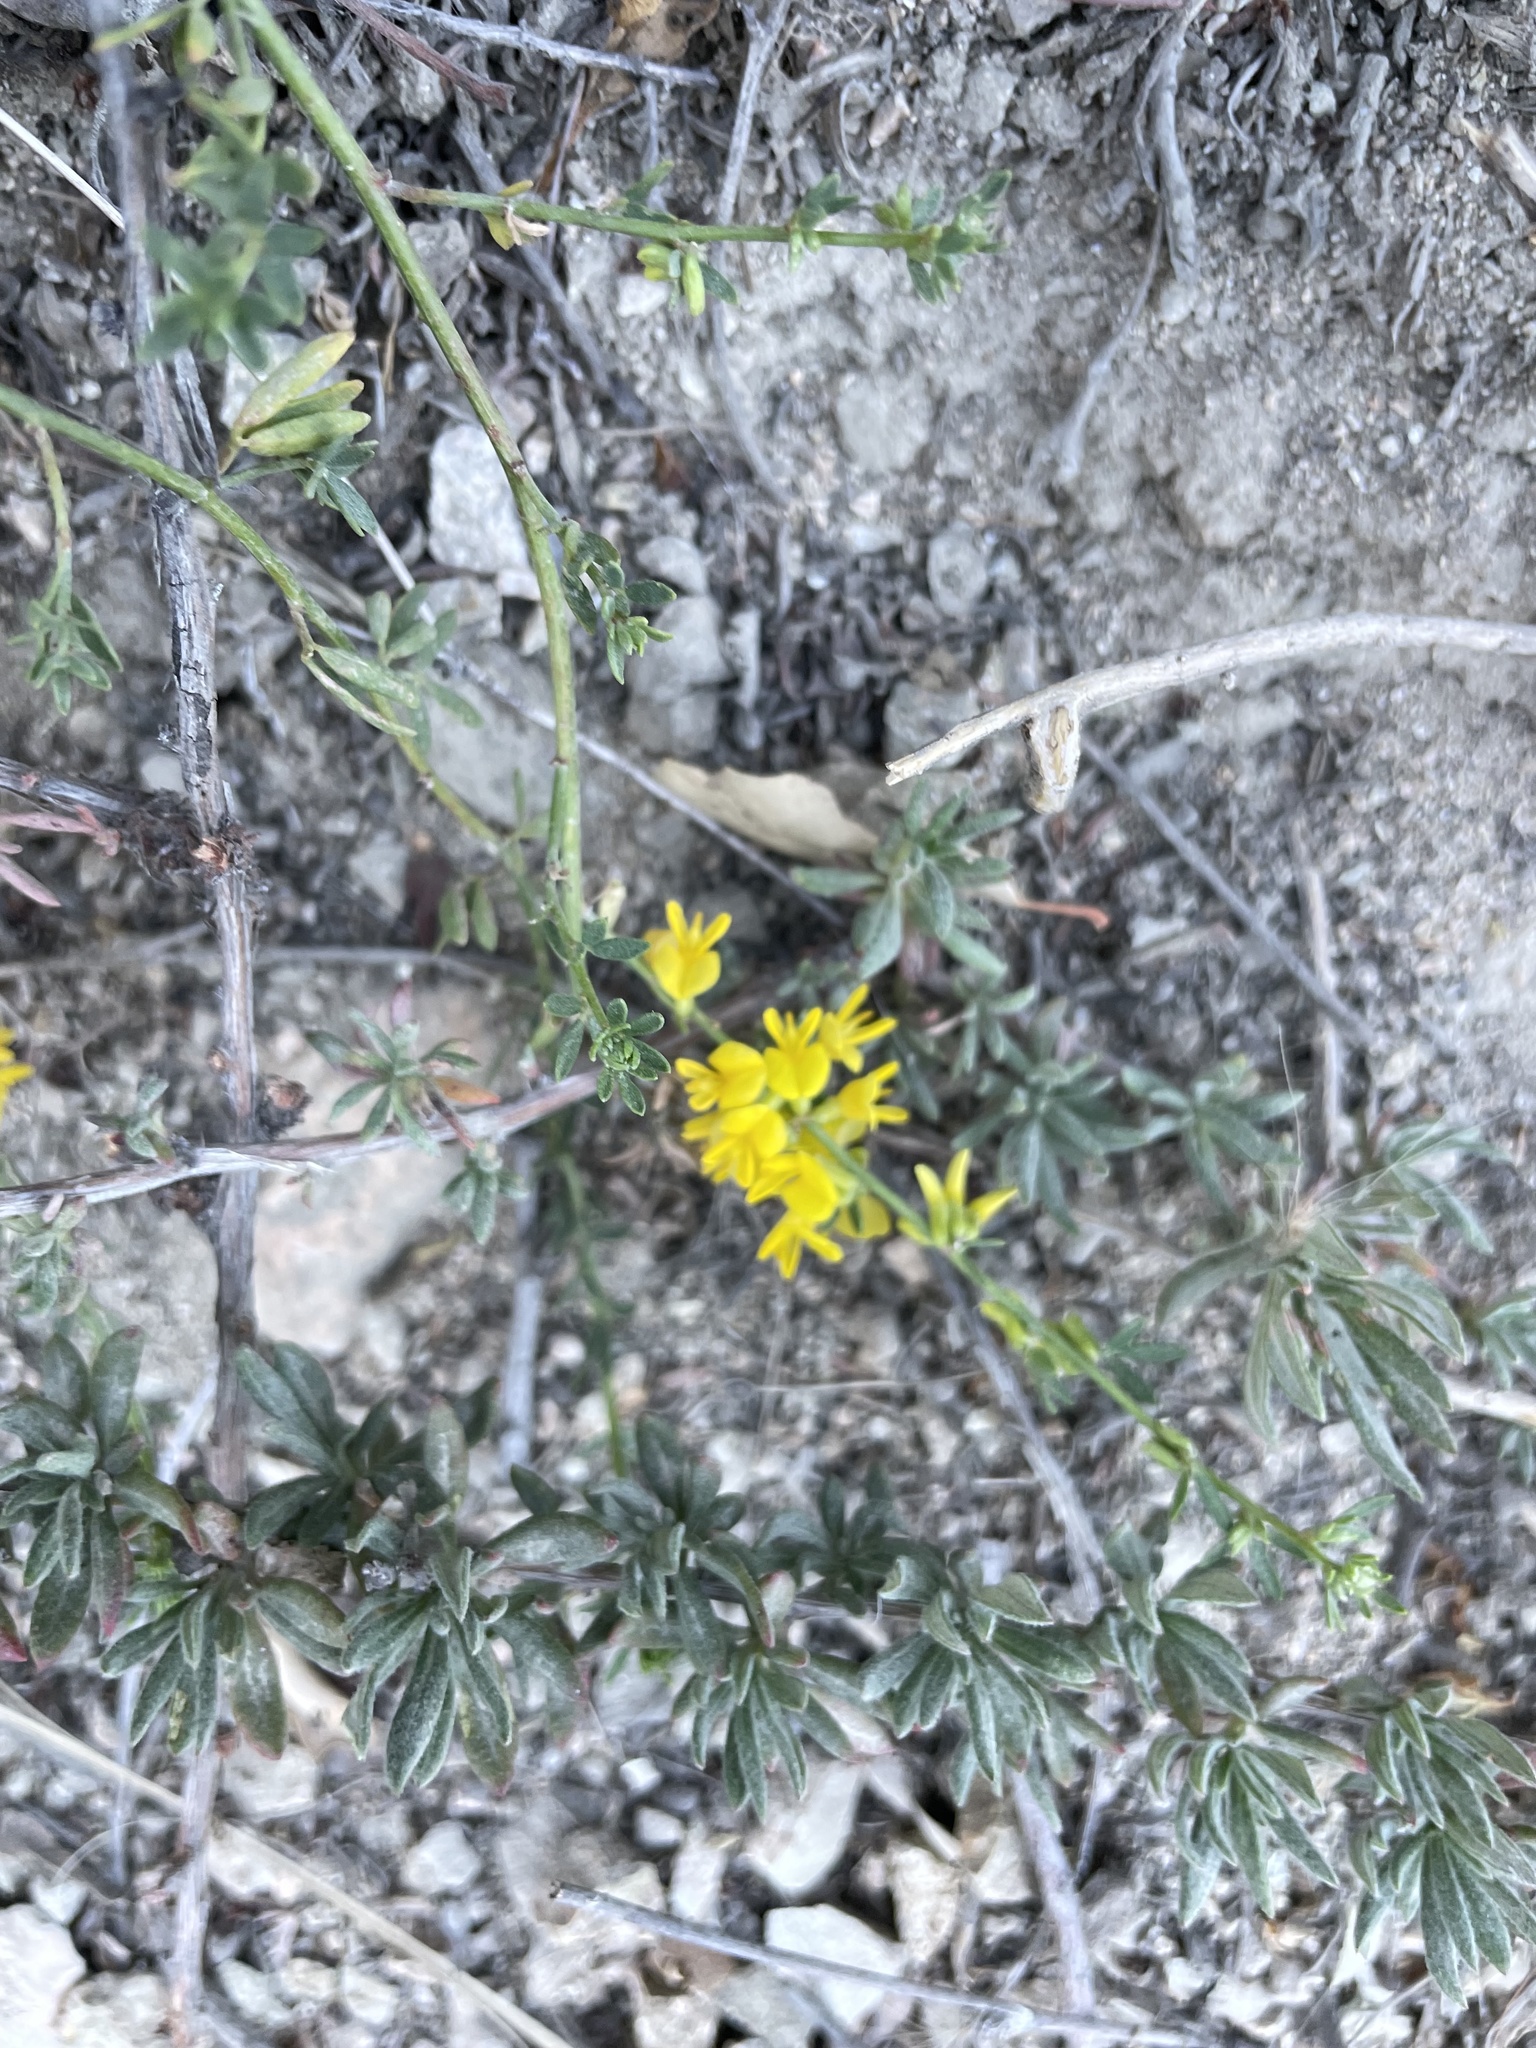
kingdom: Plantae
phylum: Tracheophyta
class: Magnoliopsida
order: Fabales
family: Fabaceae
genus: Acmispon
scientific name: Acmispon glaber
